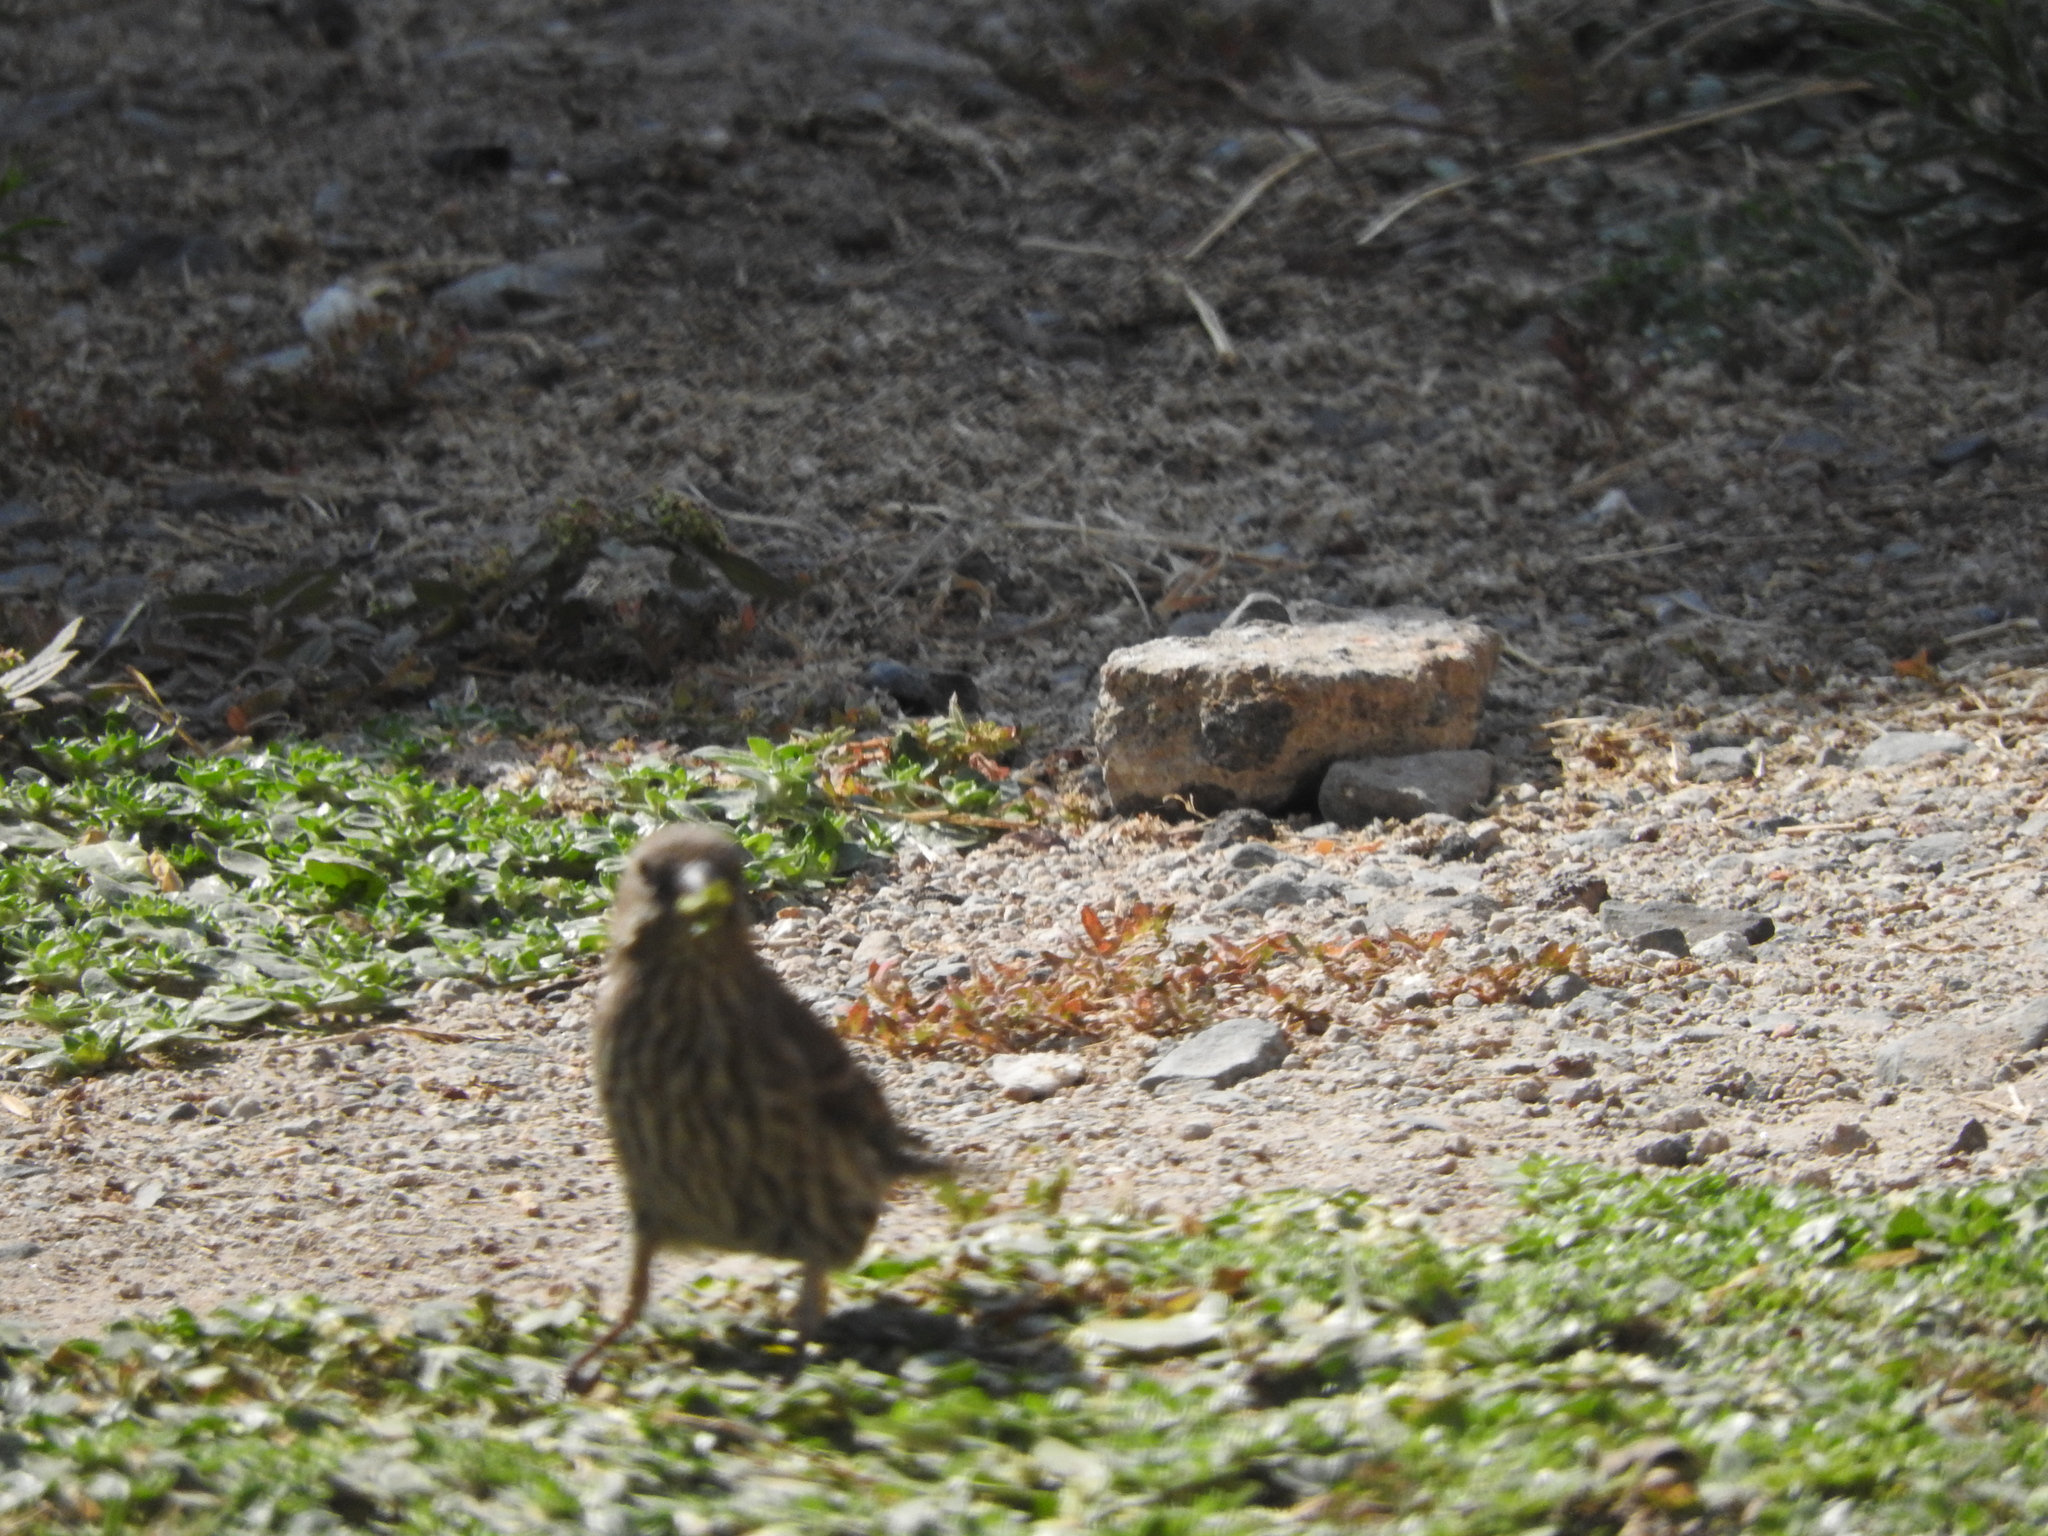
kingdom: Animalia
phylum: Chordata
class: Aves
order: Passeriformes
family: Fringillidae
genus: Haemorhous
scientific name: Haemorhous mexicanus
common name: House finch
